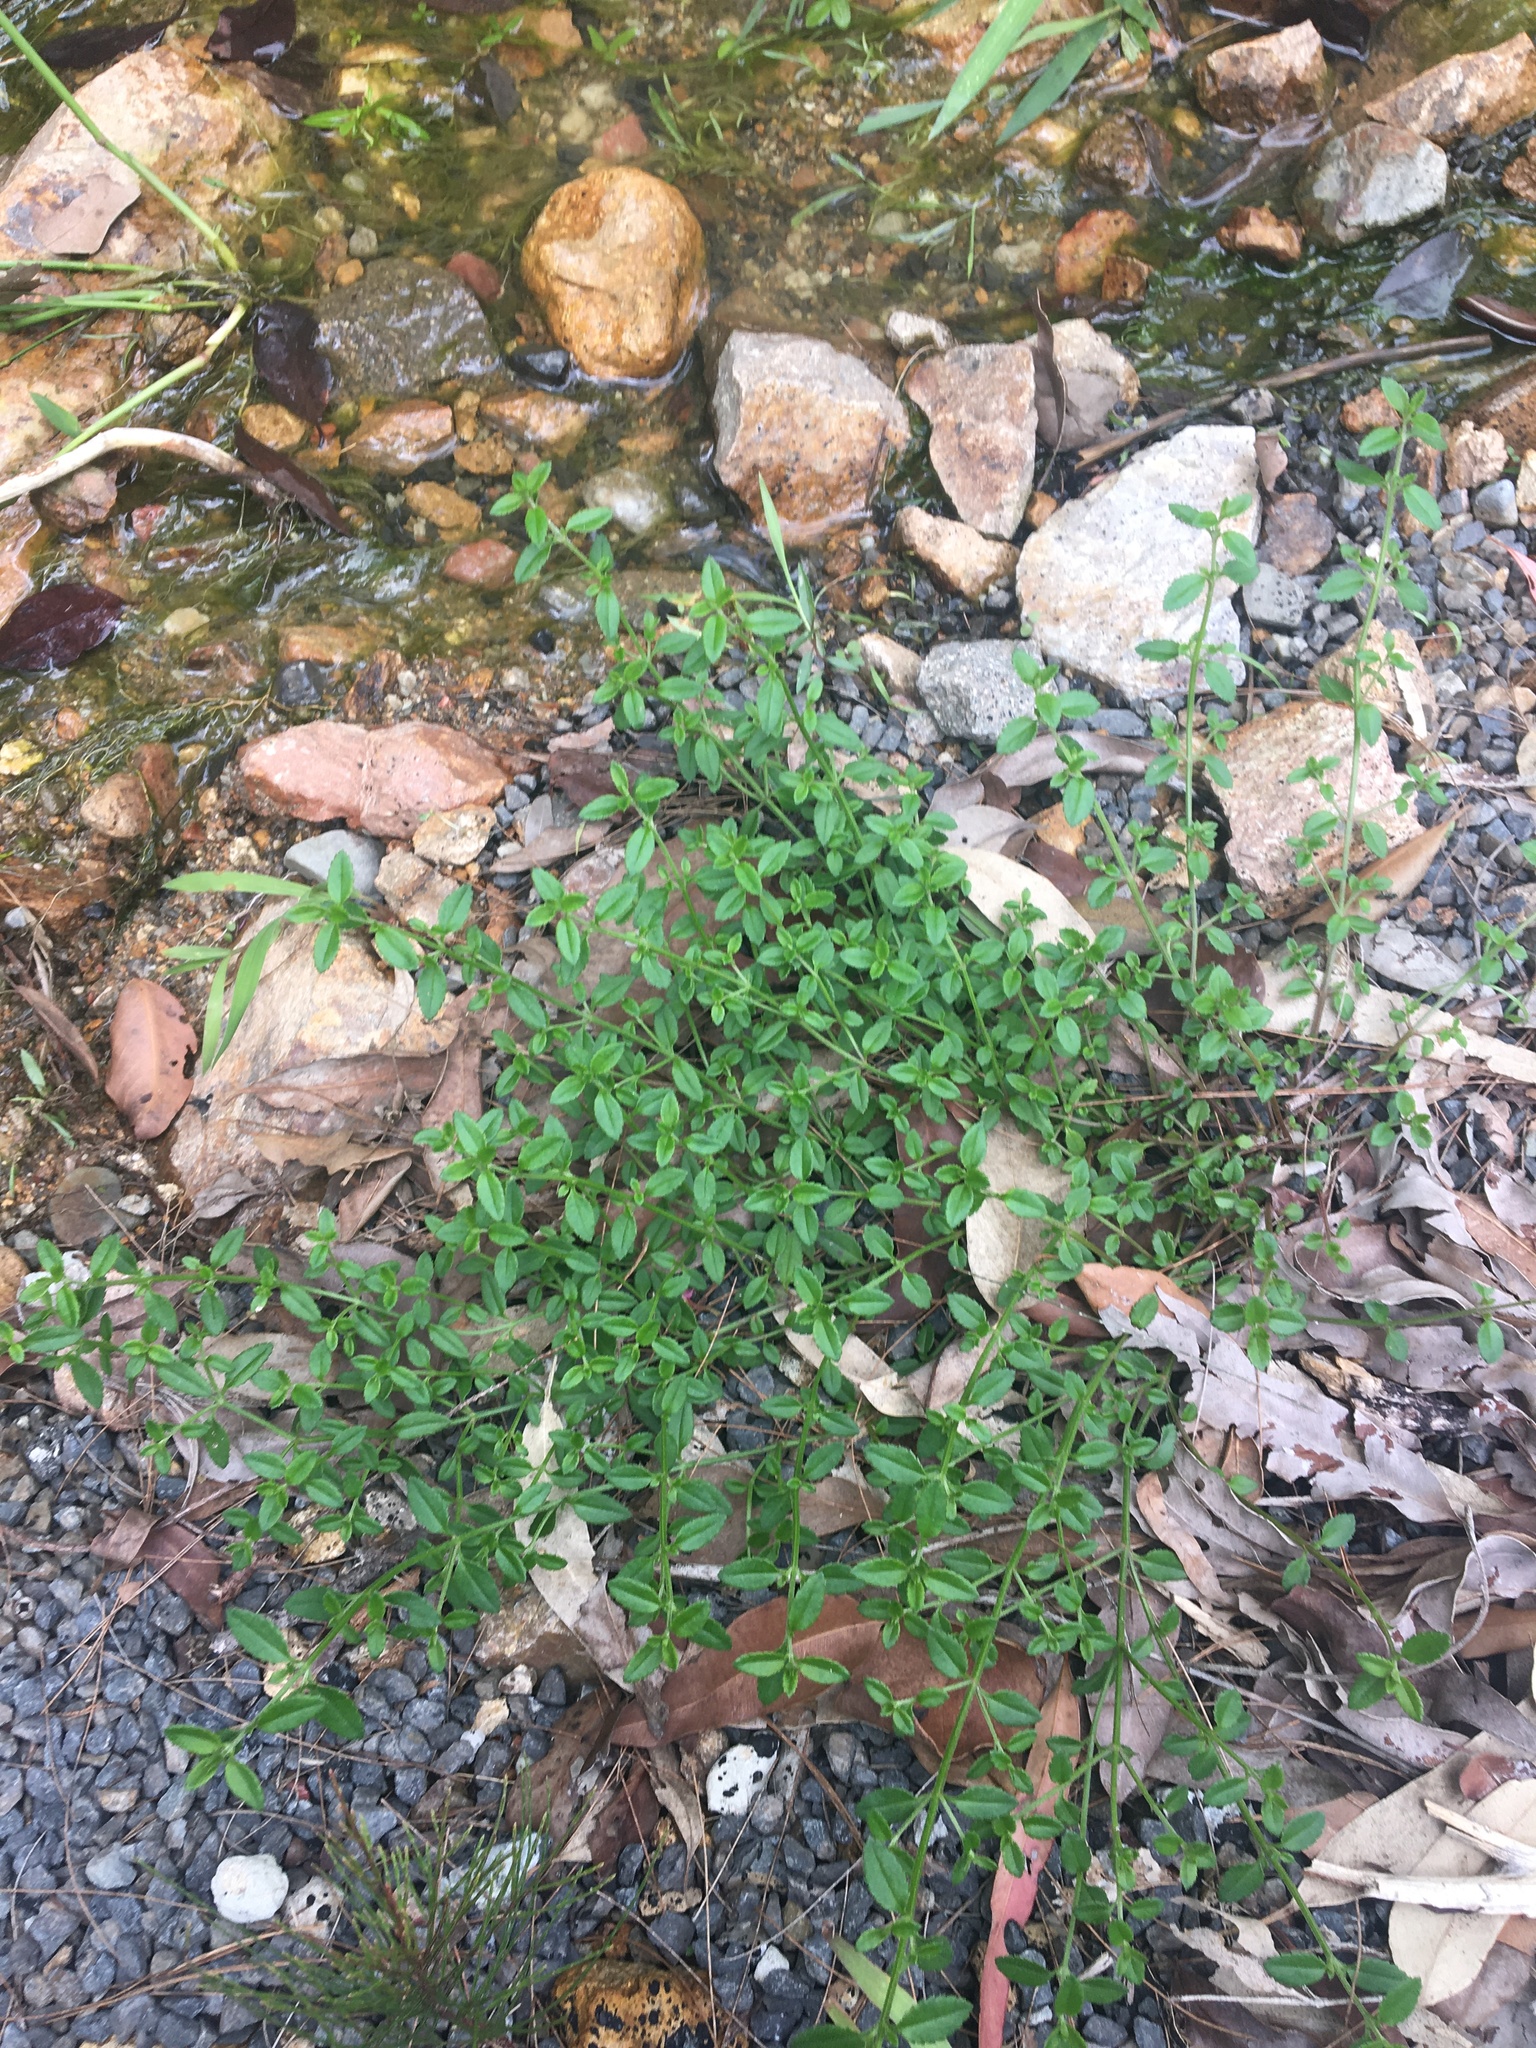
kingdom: Plantae
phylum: Tracheophyta
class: Magnoliopsida
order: Saxifragales
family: Haloragaceae
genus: Gonocarpus
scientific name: Gonocarpus tetragynus
